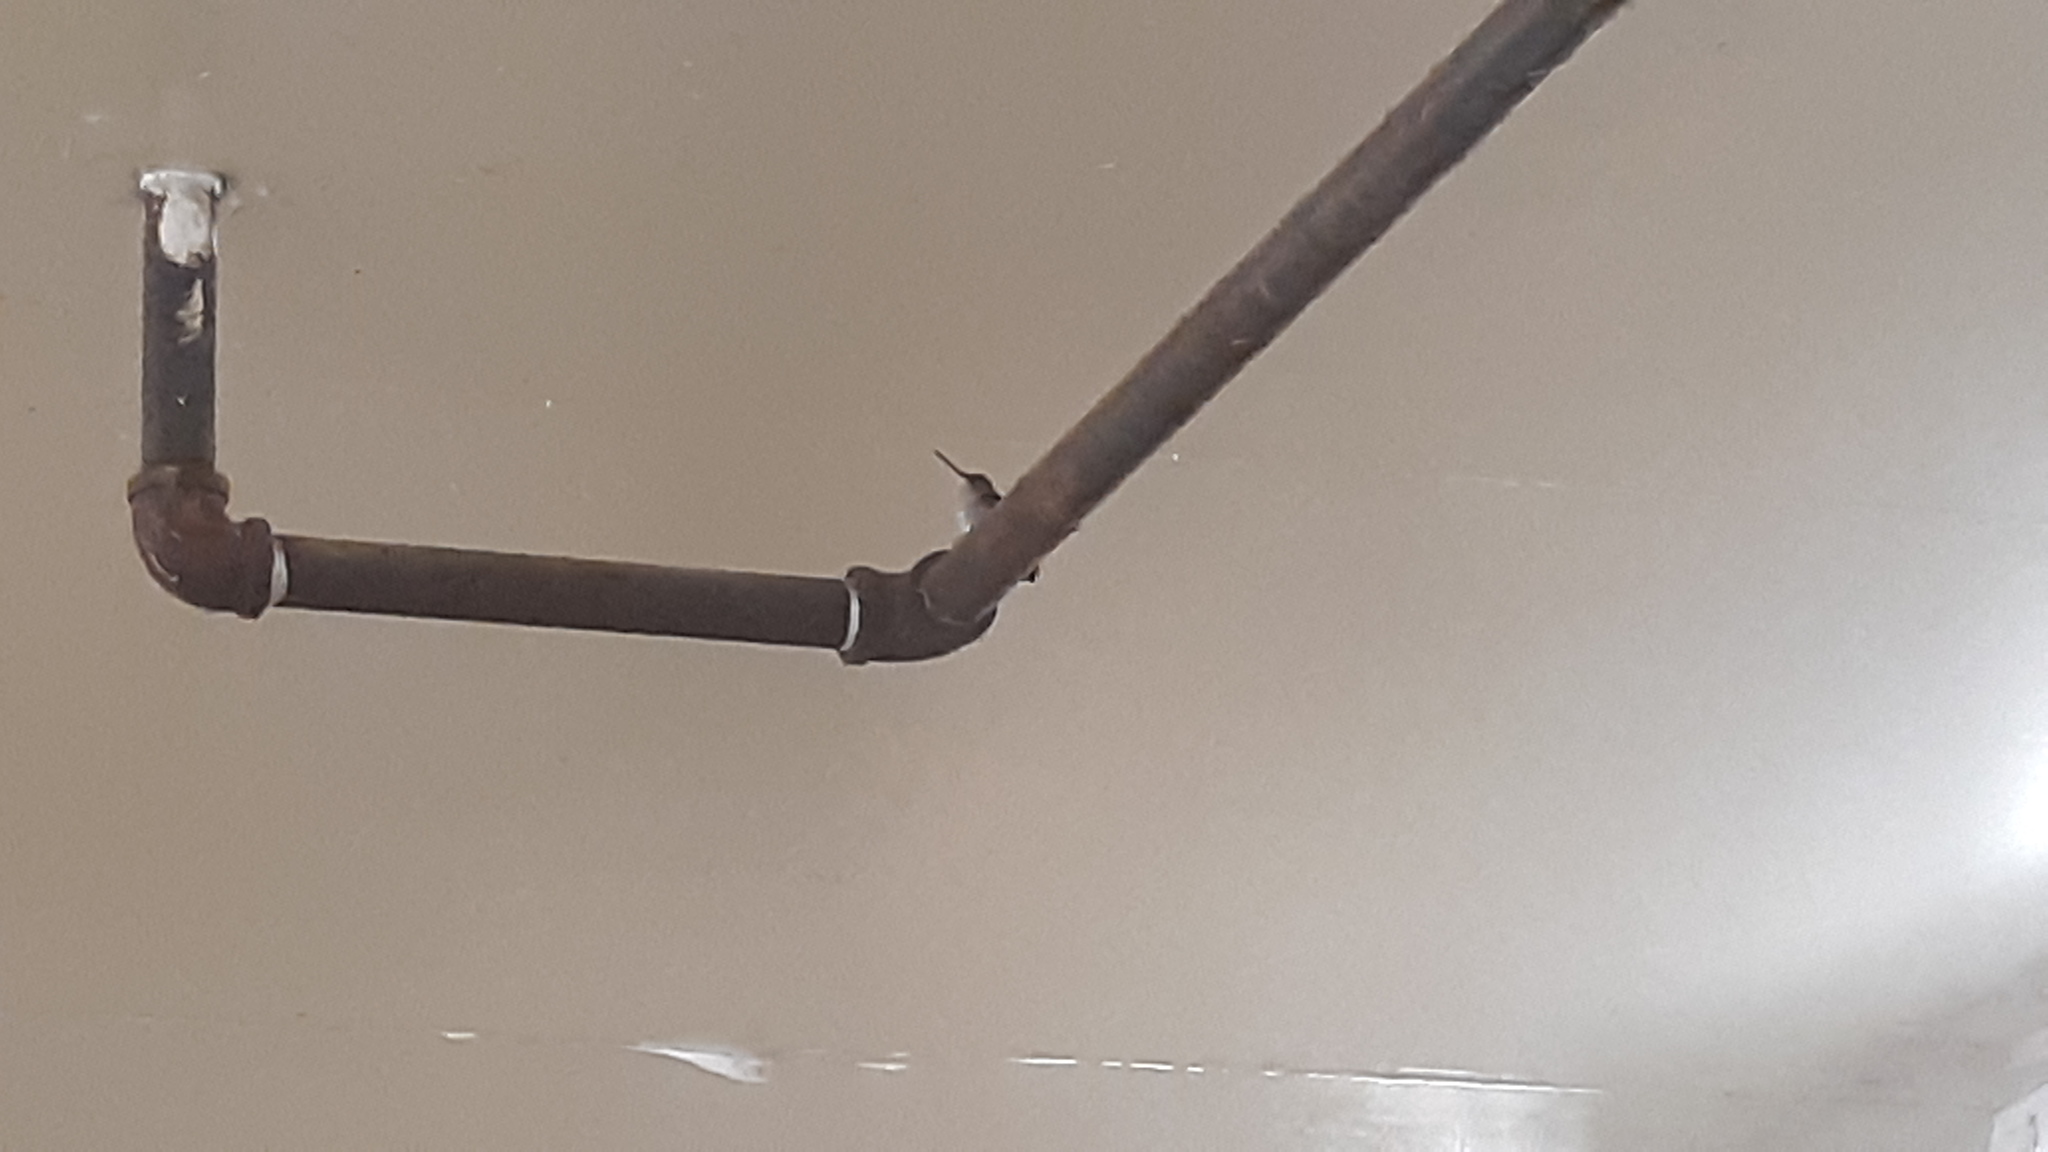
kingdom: Animalia
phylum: Chordata
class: Aves
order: Apodiformes
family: Trochilidae
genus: Archilochus
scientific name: Archilochus colubris
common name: Ruby-throated hummingbird
